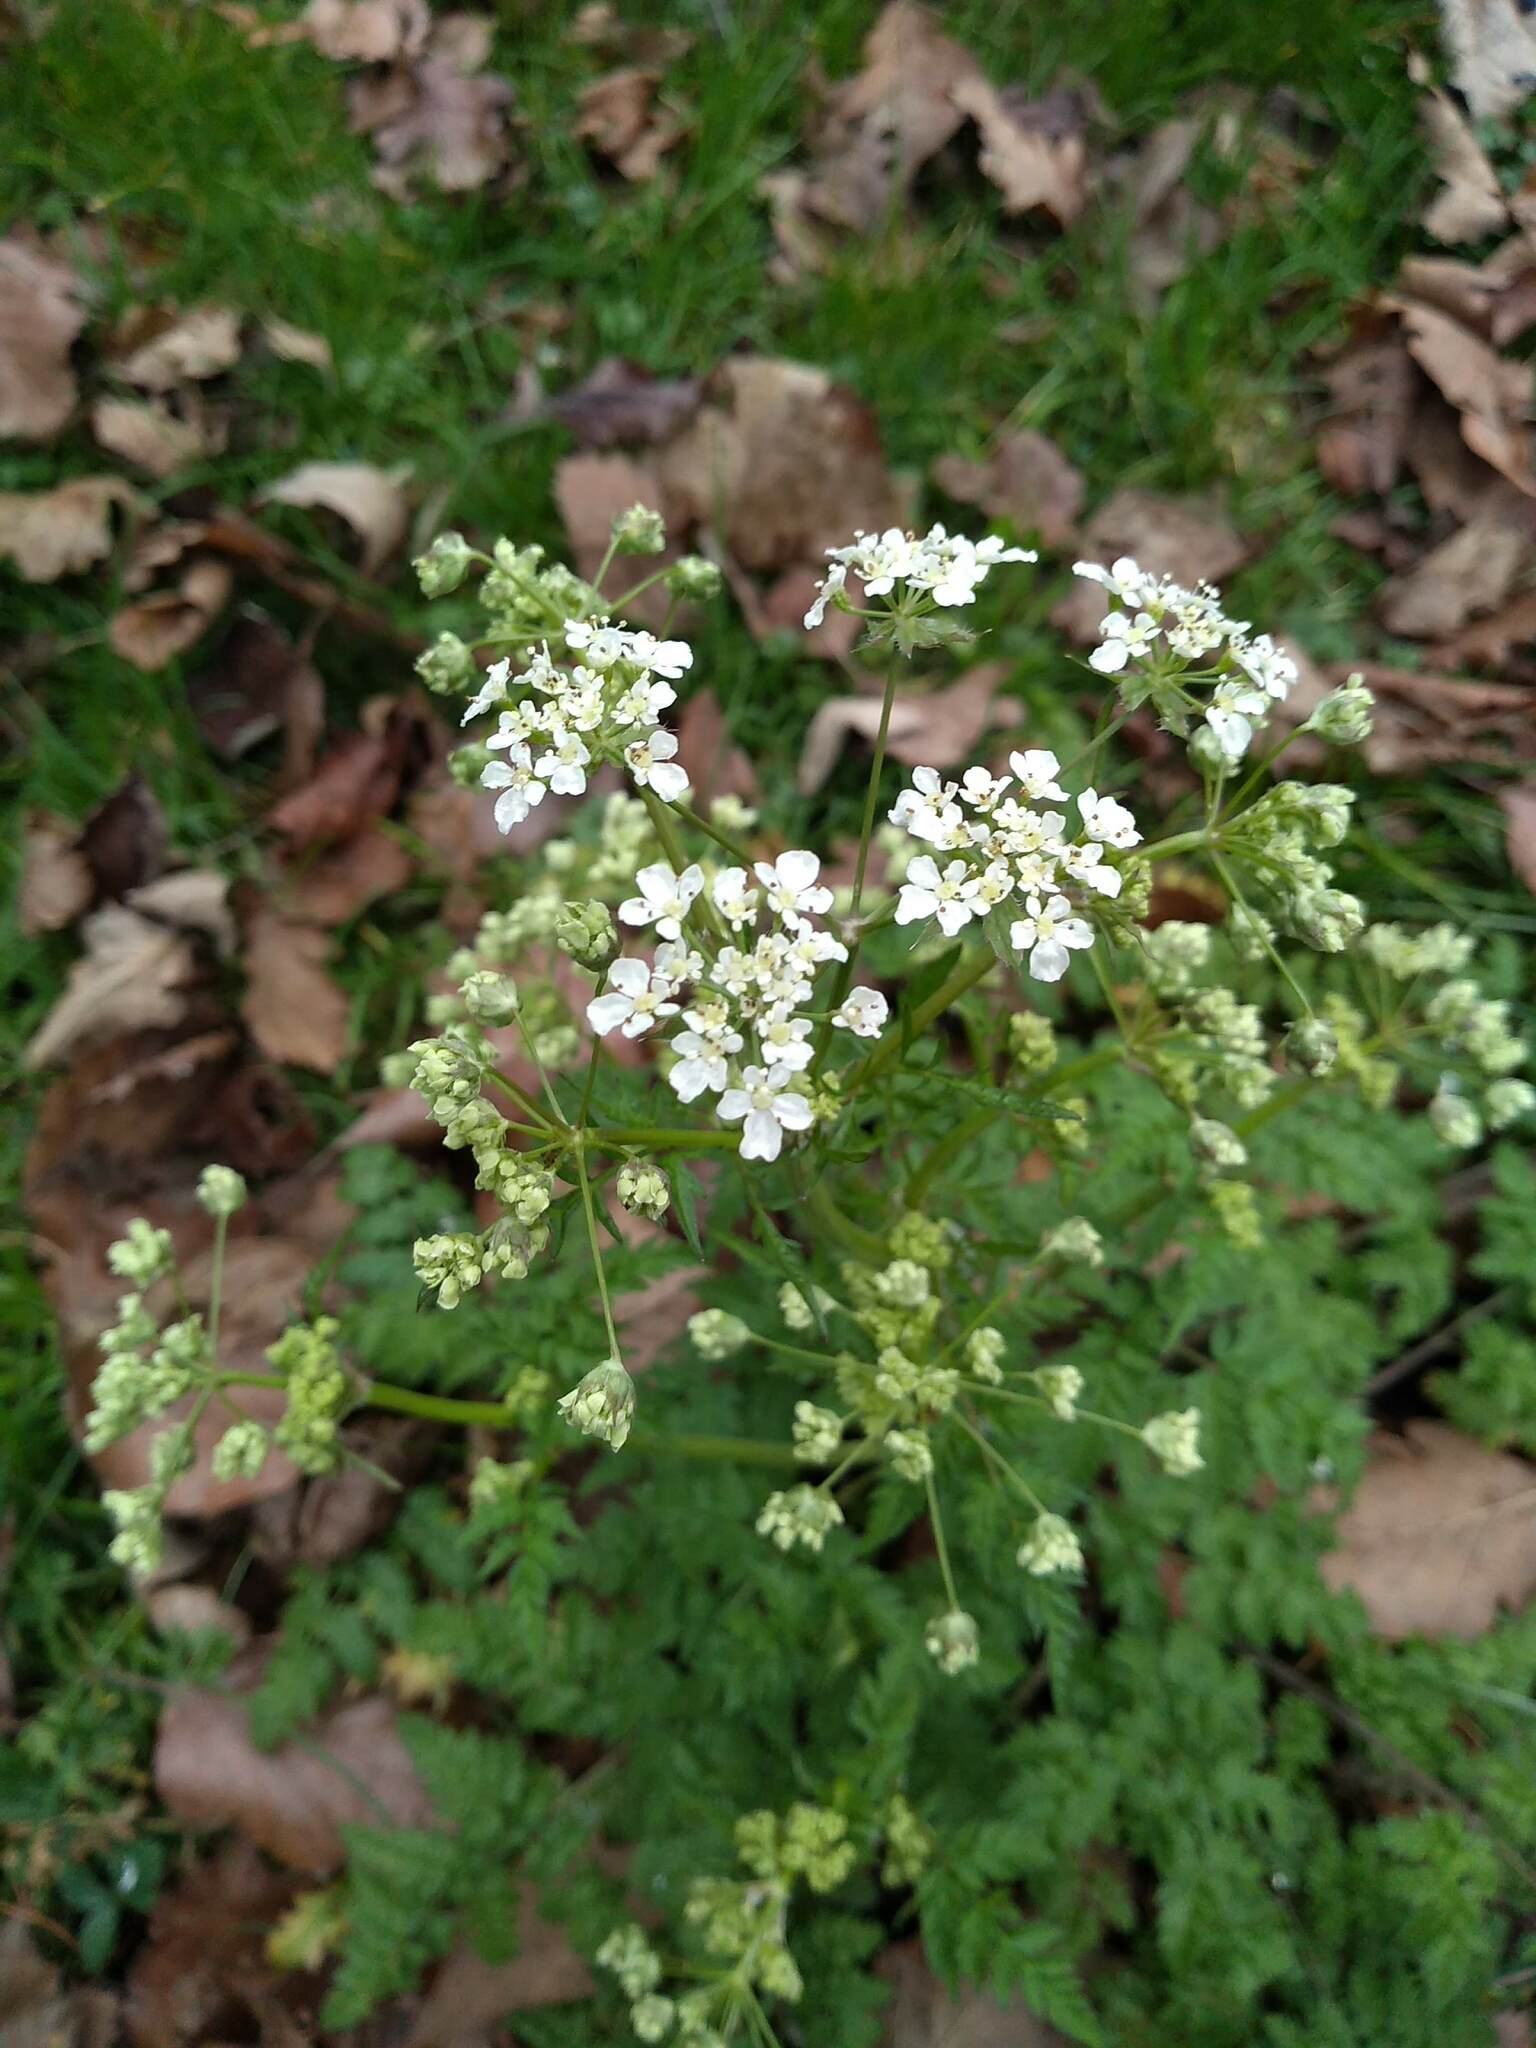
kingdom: Plantae
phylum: Tracheophyta
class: Magnoliopsida
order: Apiales
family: Apiaceae
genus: Anthriscus
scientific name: Anthriscus sylvestris
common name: Cow parsley
